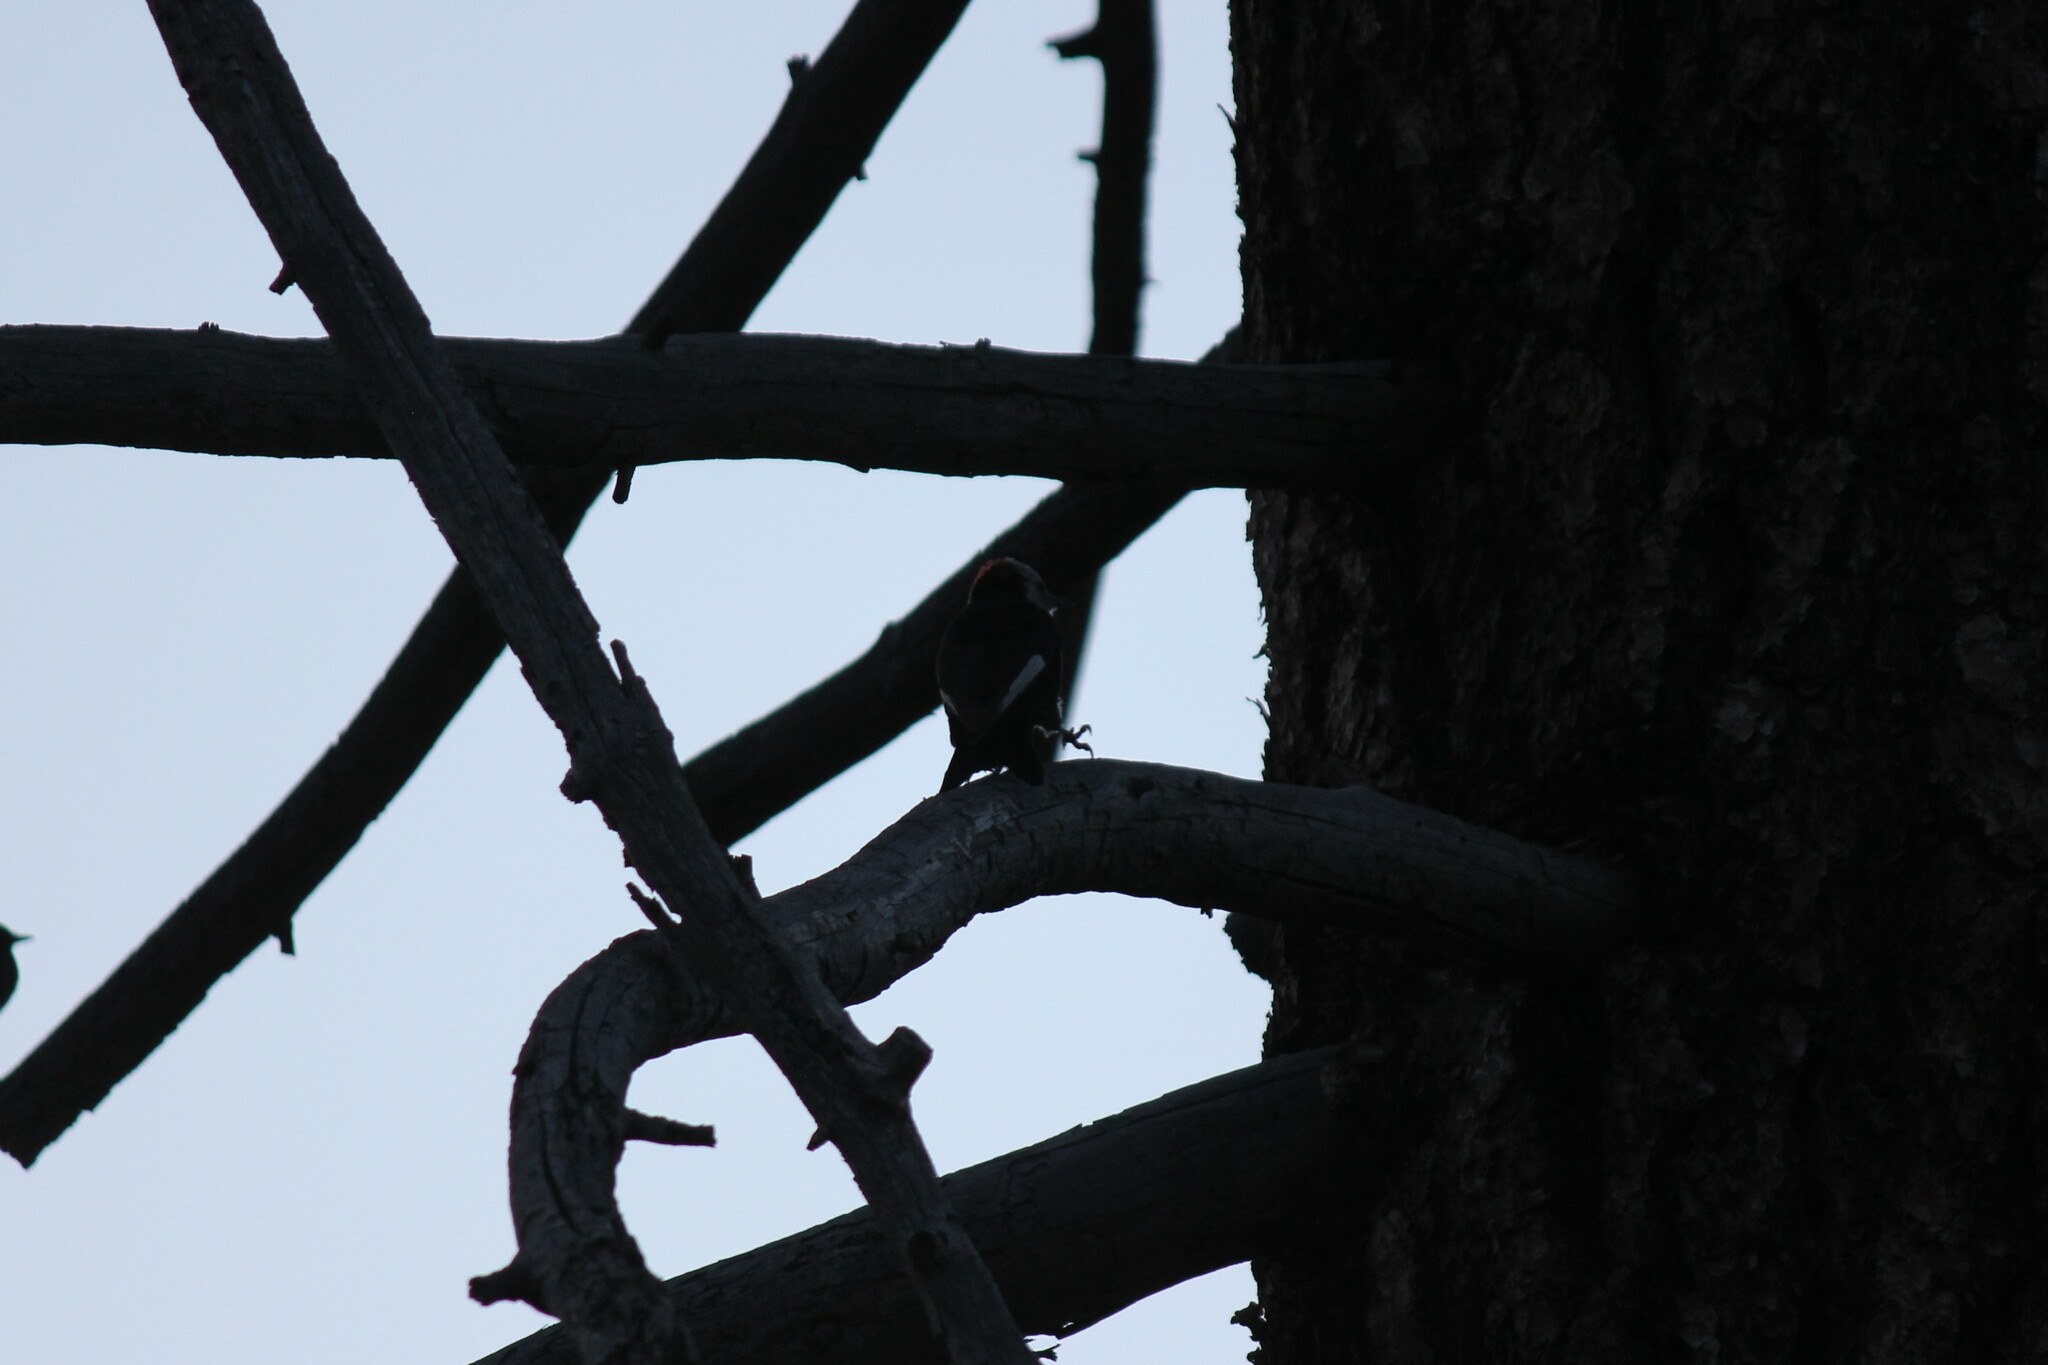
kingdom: Animalia
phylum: Chordata
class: Aves
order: Piciformes
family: Picidae
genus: Leuconotopicus
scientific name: Leuconotopicus albolarvatus
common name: White-headed woodpecker
